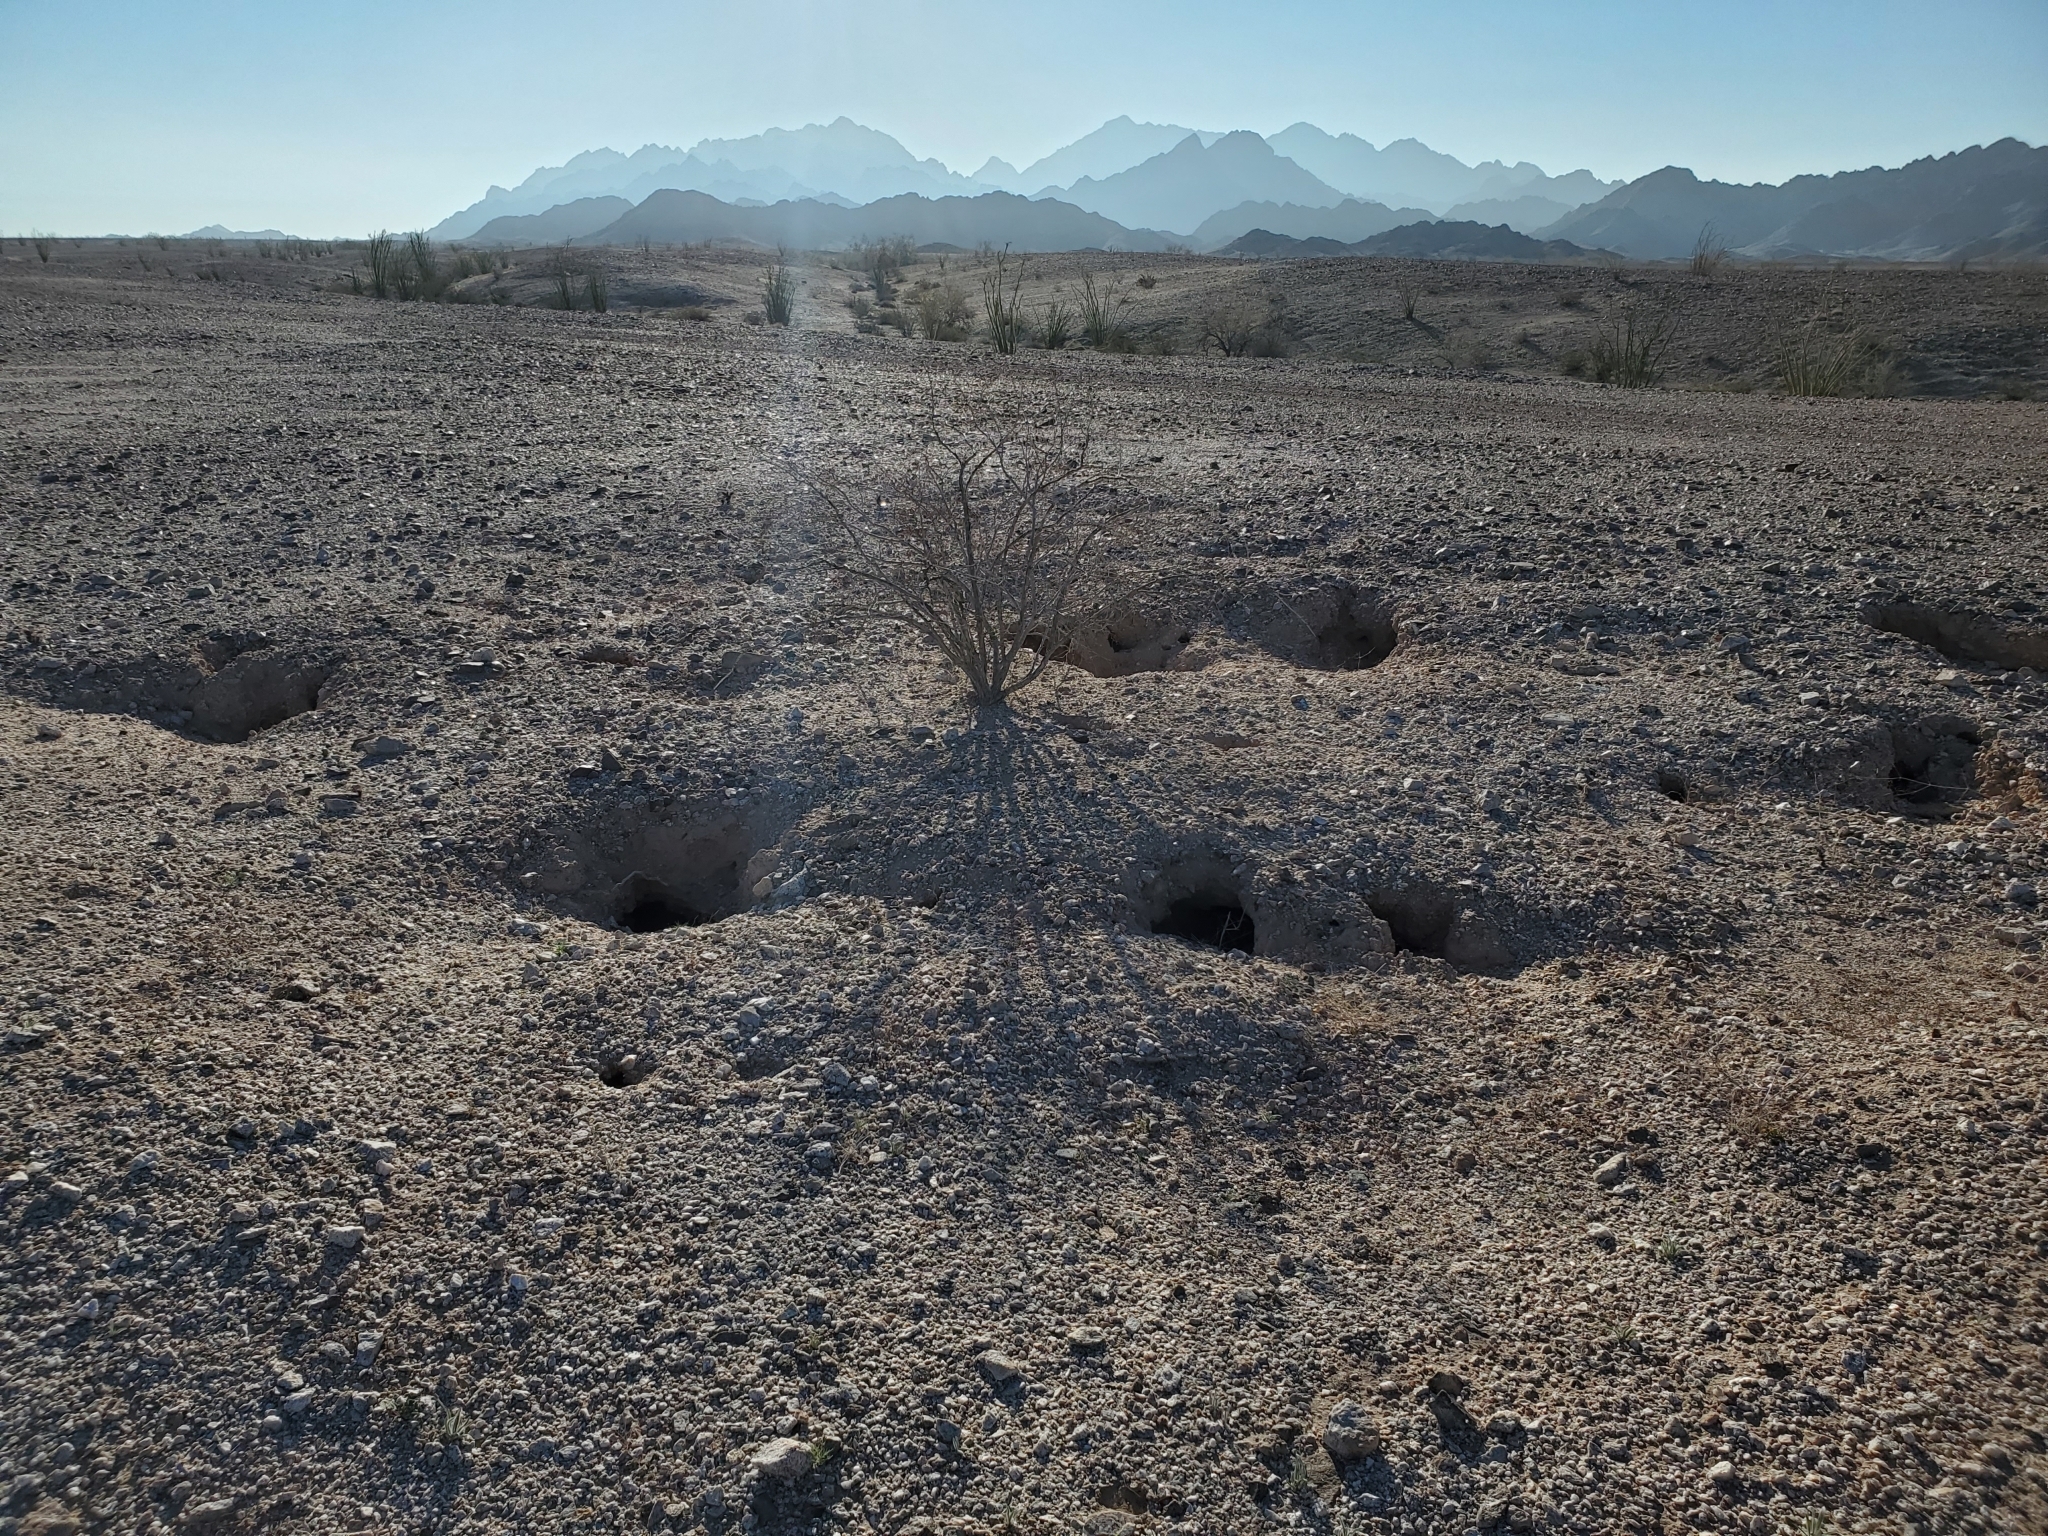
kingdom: Animalia
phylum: Chordata
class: Mammalia
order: Carnivora
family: Mustelidae
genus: Taxidea
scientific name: Taxidea taxus
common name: American badger
